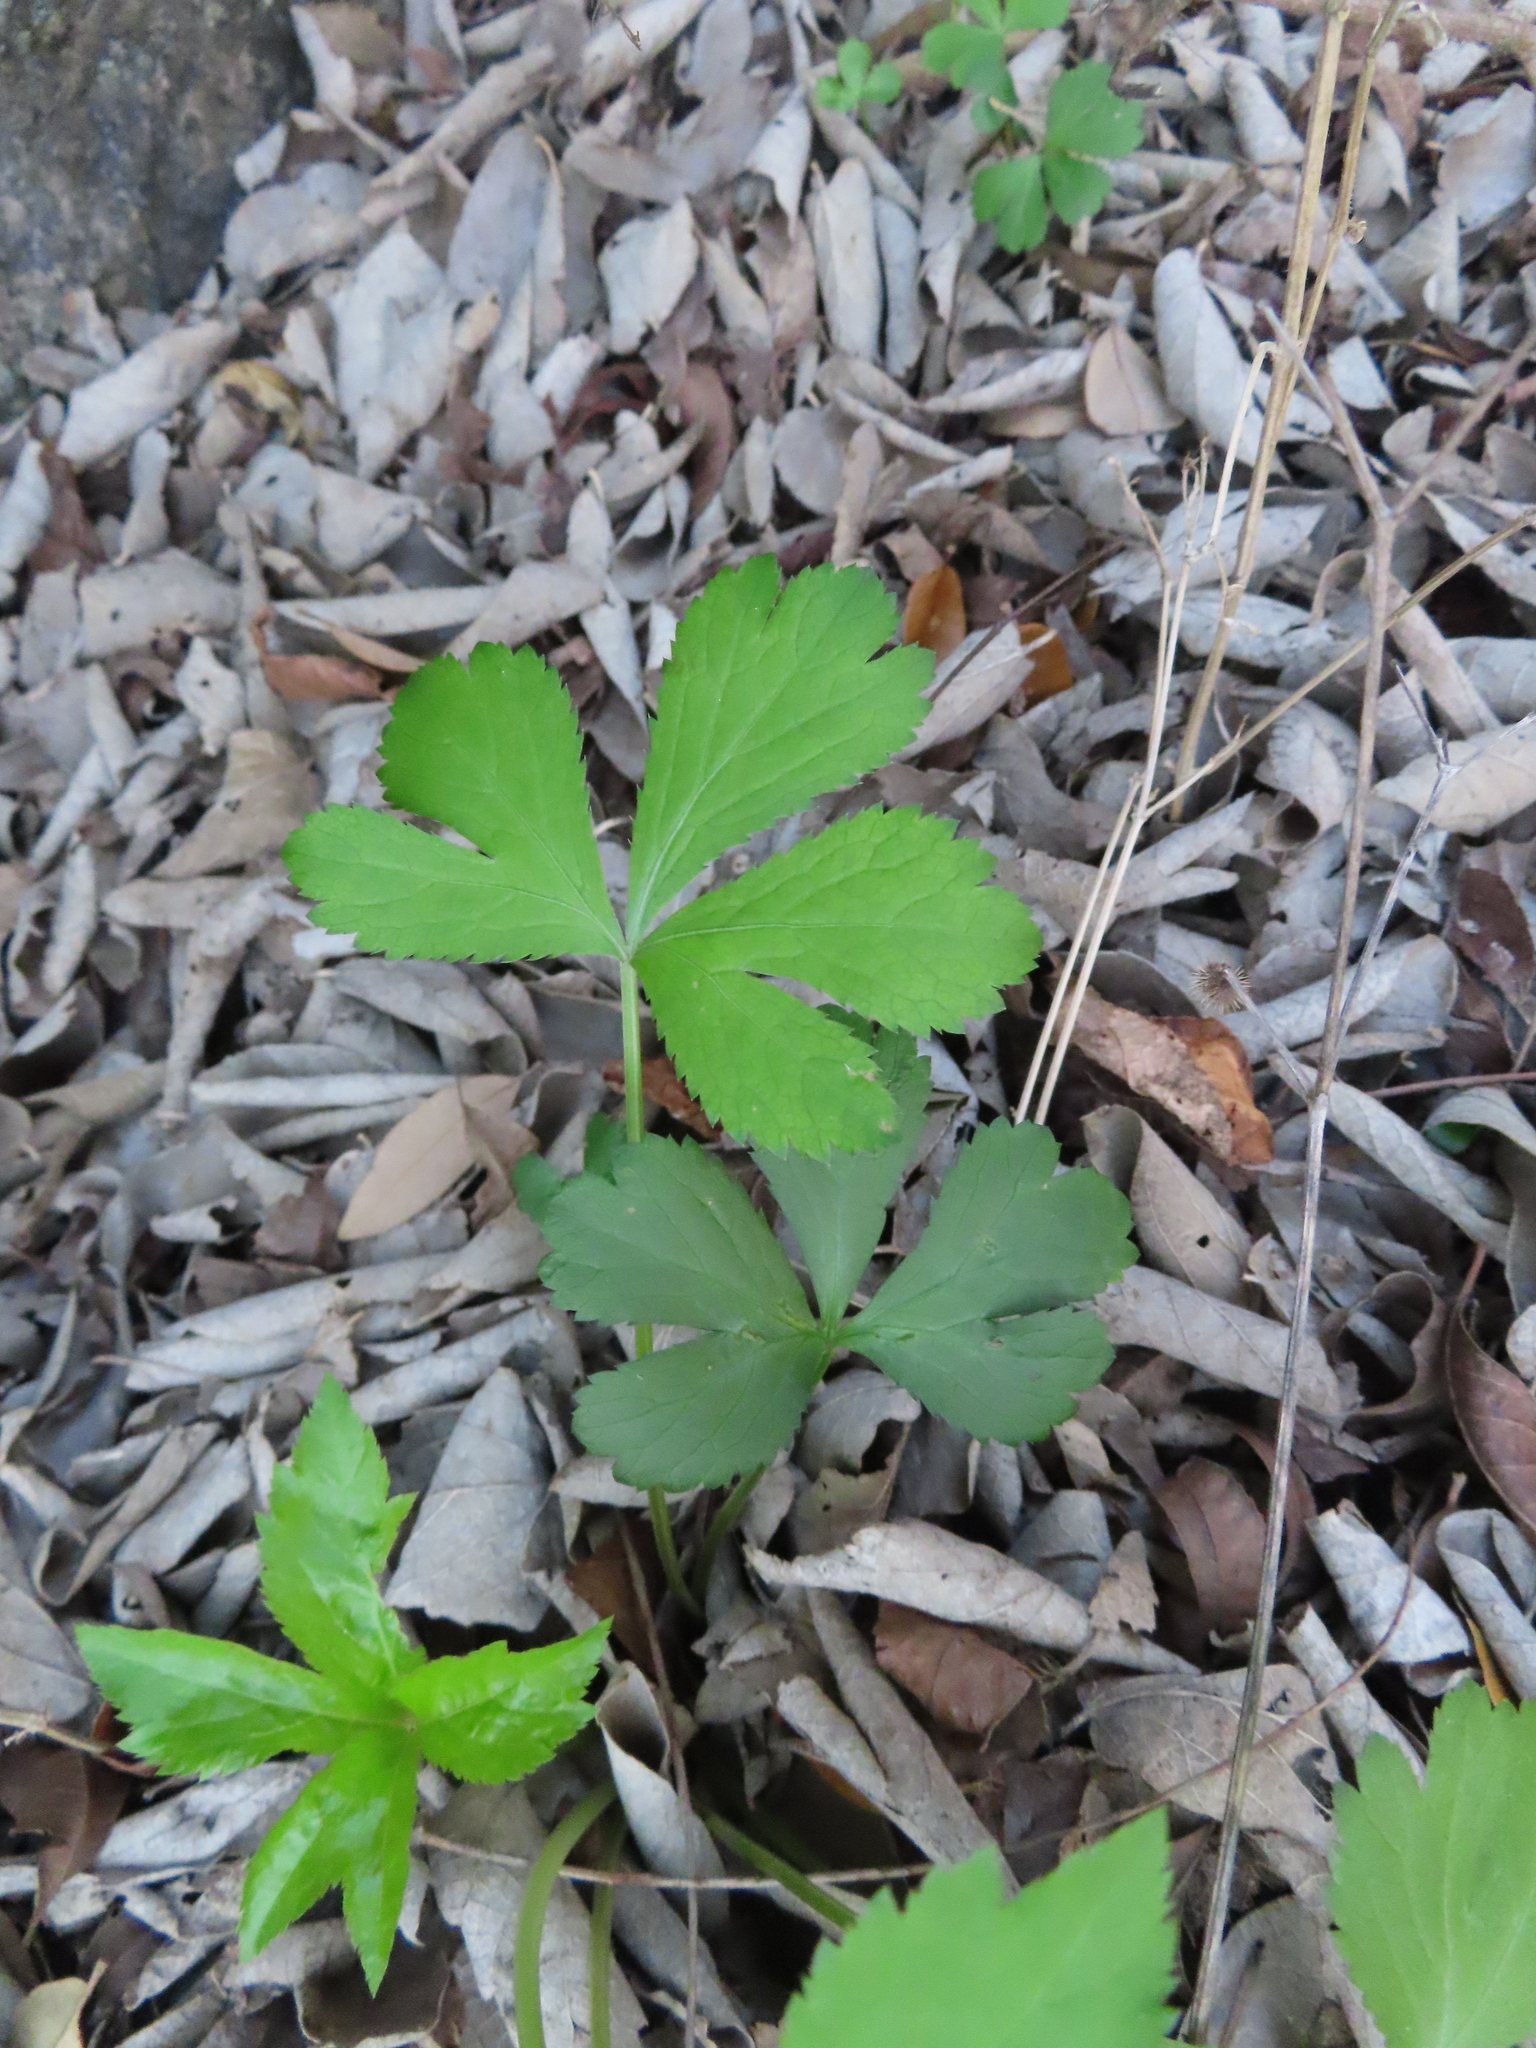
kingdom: Plantae
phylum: Tracheophyta
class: Magnoliopsida
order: Apiales
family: Apiaceae
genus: Sanicula
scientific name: Sanicula canadensis
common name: Canada sanicle
